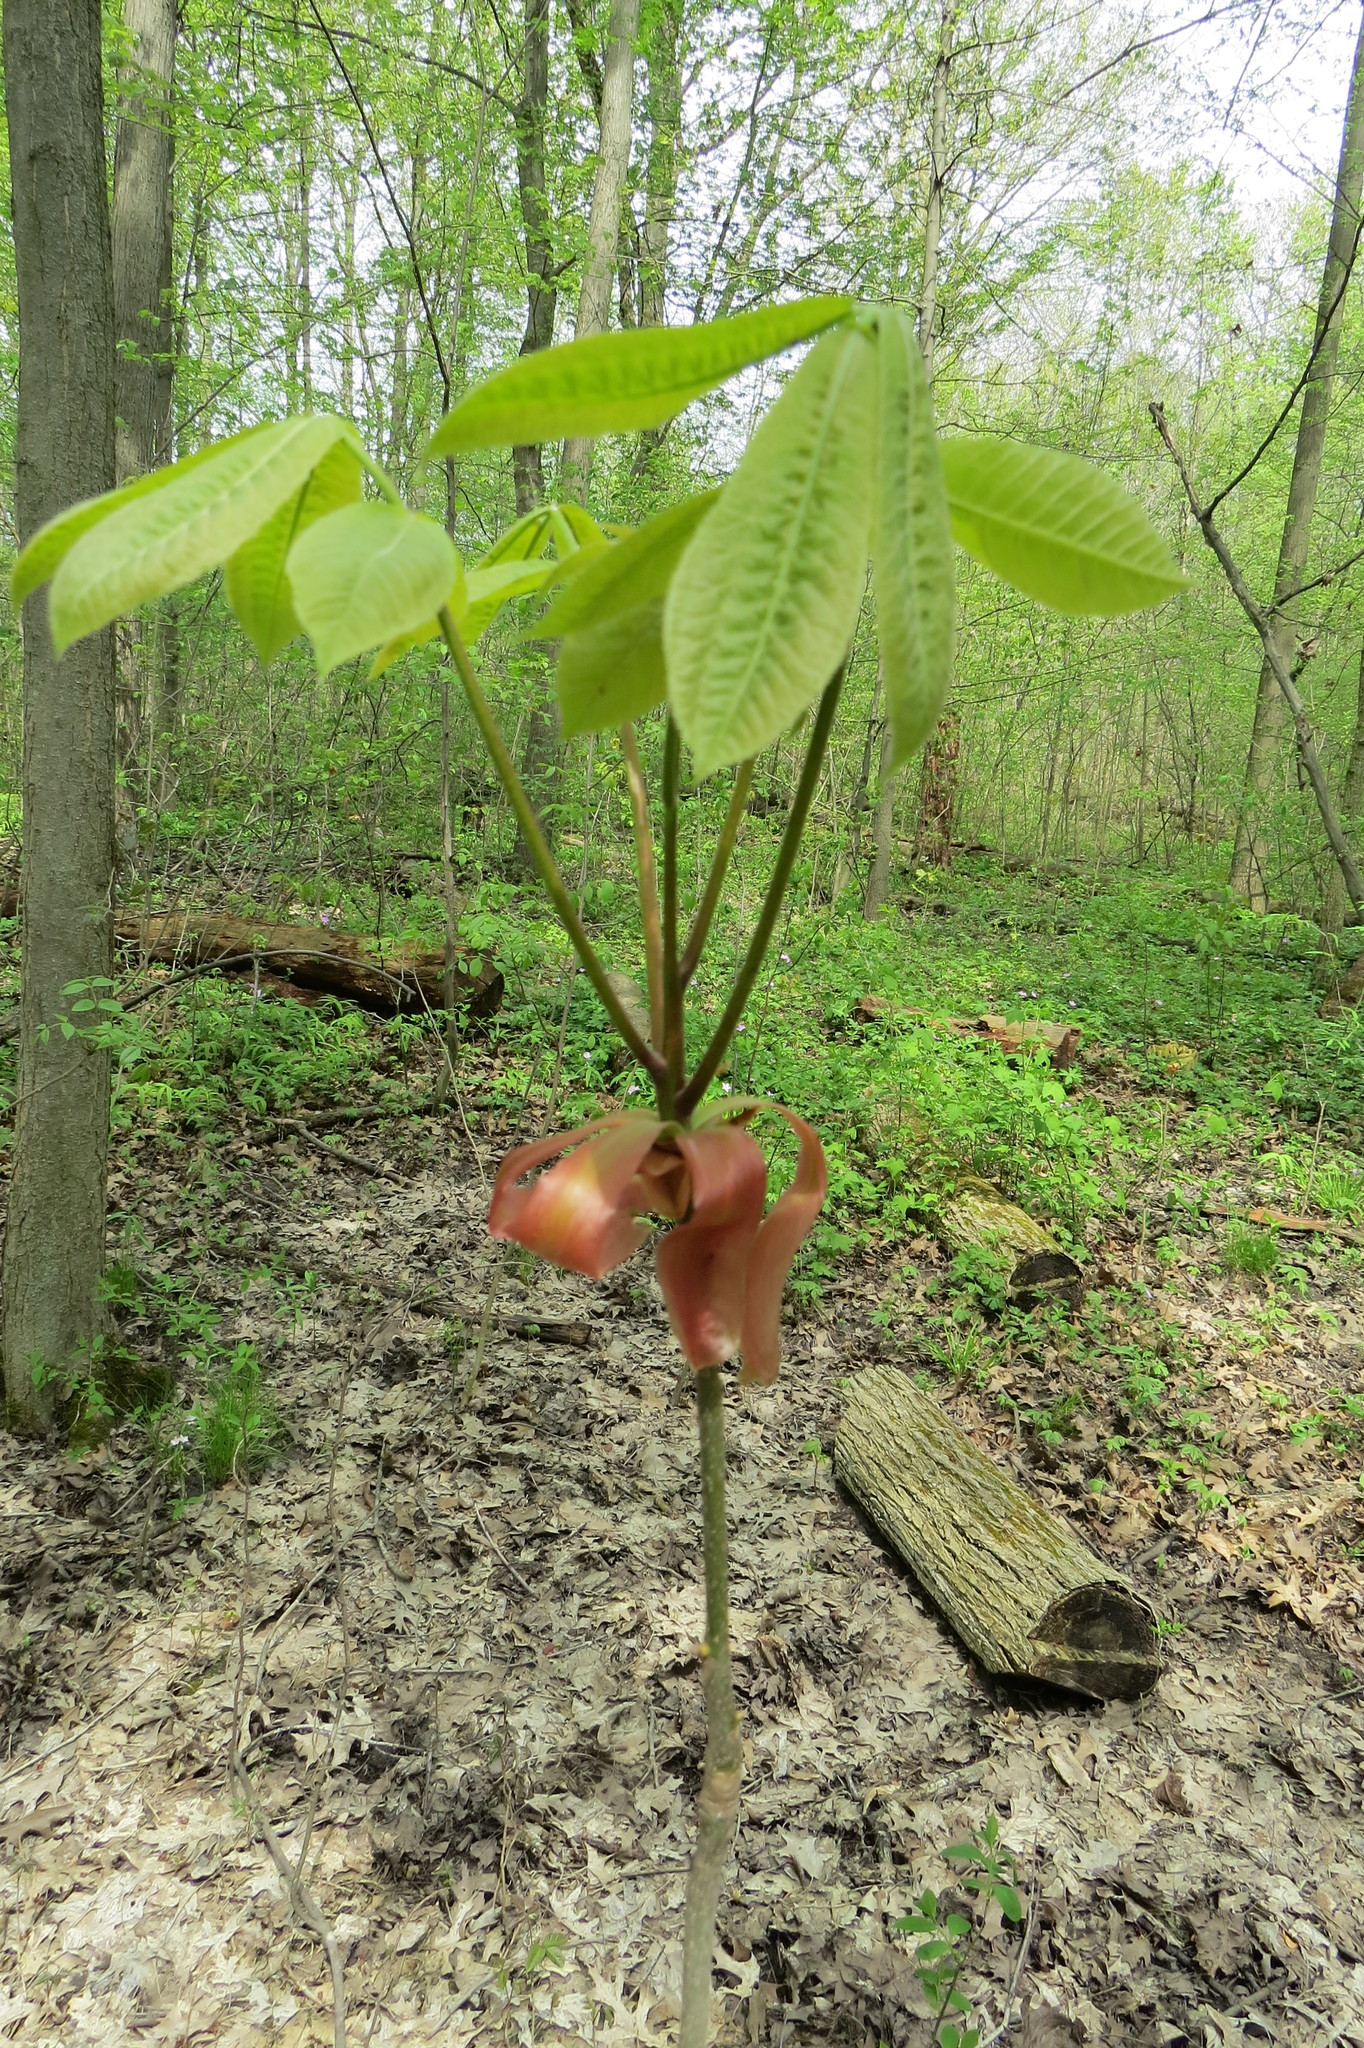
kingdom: Plantae
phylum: Tracheophyta
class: Magnoliopsida
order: Fagales
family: Juglandaceae
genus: Carya
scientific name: Carya ovata
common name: Shagbark hickory
